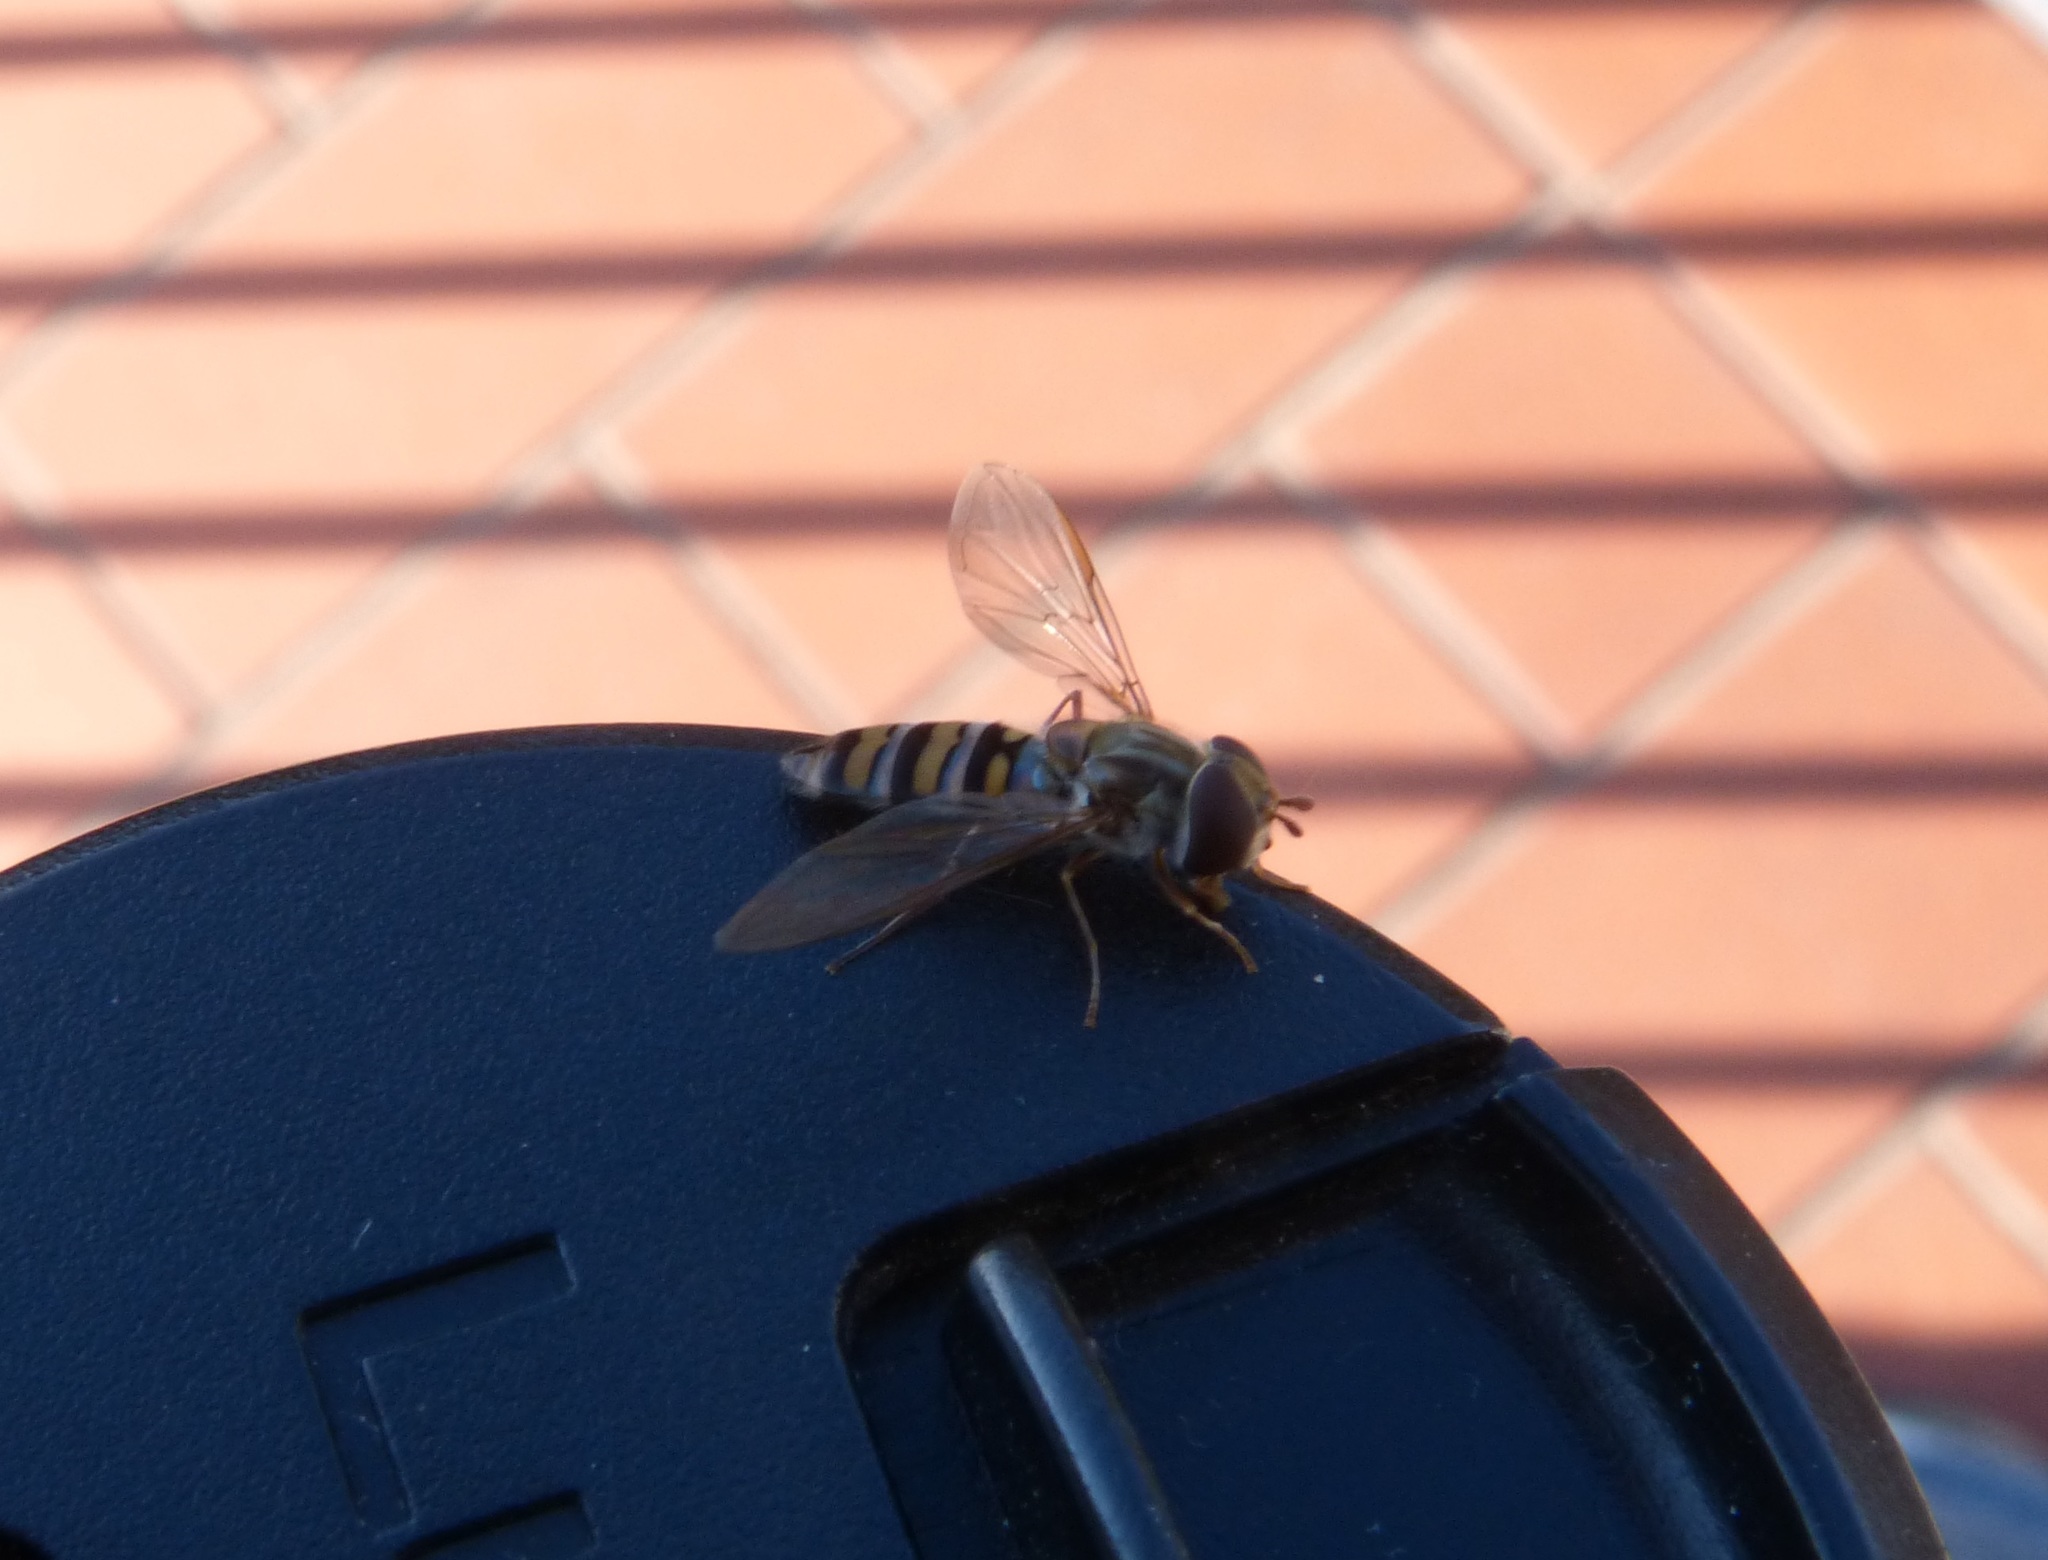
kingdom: Animalia
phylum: Arthropoda
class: Insecta
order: Diptera
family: Syrphidae
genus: Episyrphus
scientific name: Episyrphus balteatus
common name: Marmalade hoverfly
